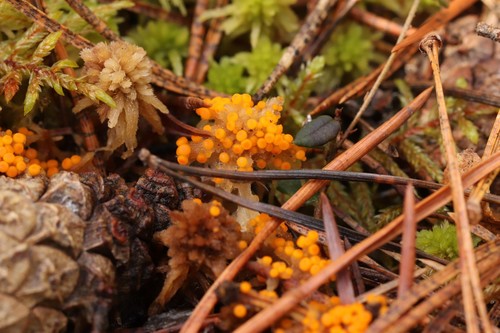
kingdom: Fungi
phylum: Ascomycota
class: Pezizomycetes
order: Pezizales
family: Pyronemataceae
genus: Byssonectria
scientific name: Byssonectria terrestris
